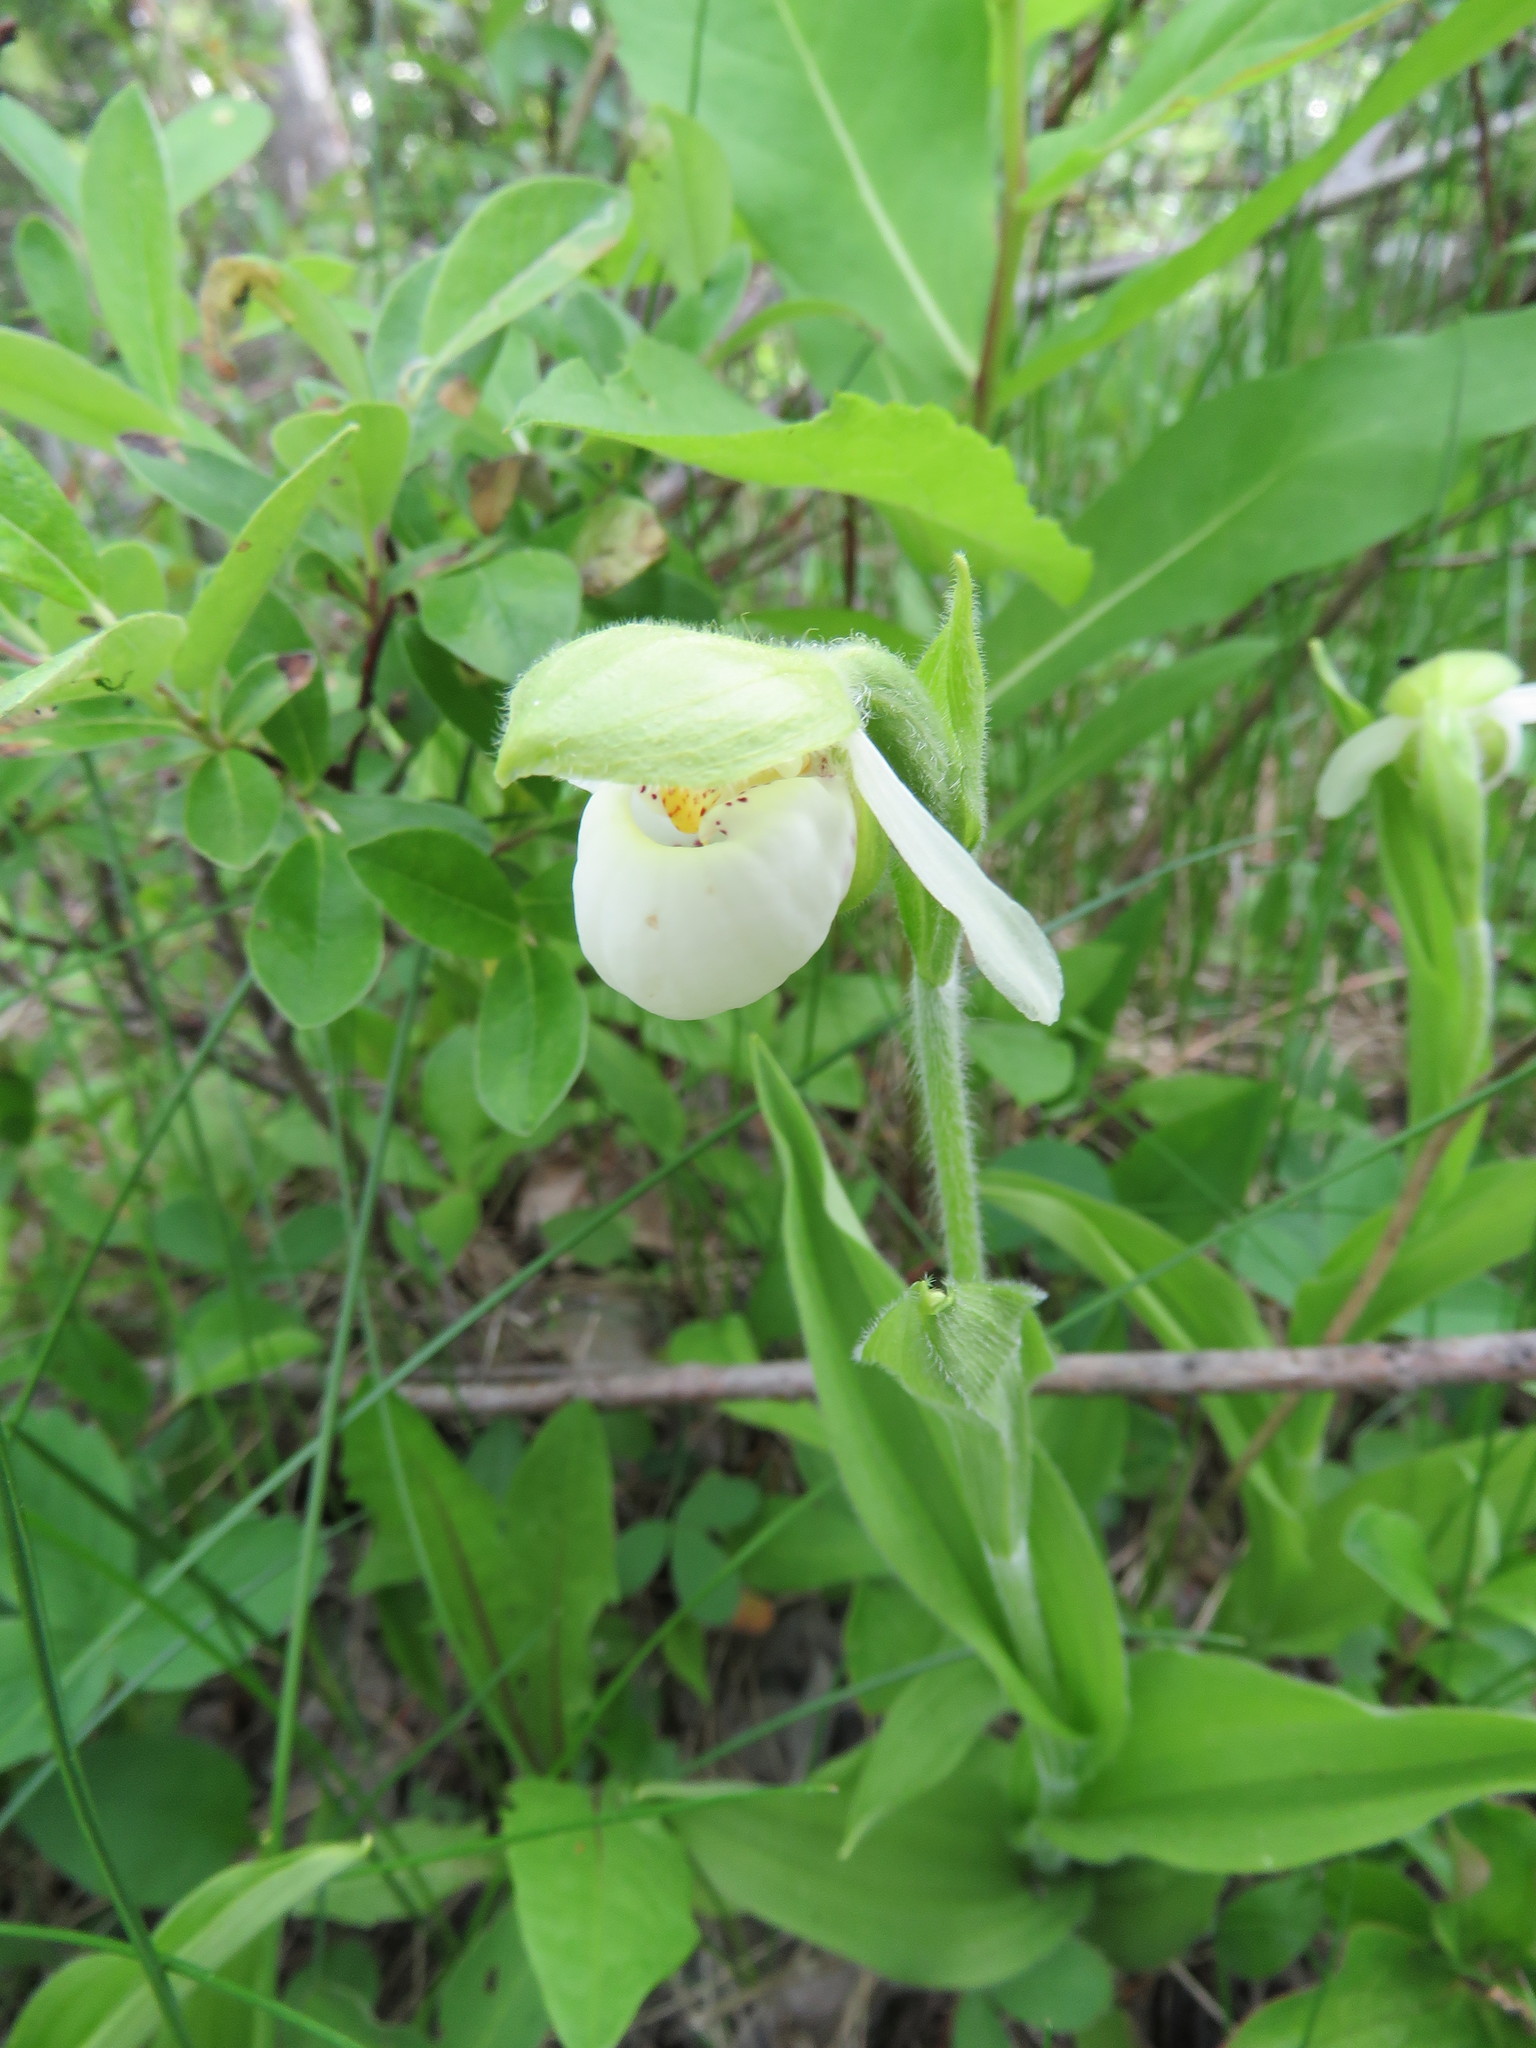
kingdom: Plantae
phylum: Tracheophyta
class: Liliopsida
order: Asparagales
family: Orchidaceae
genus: Cypripedium
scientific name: Cypripedium passerinum
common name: Sparrow's-egg lady's-slipper
